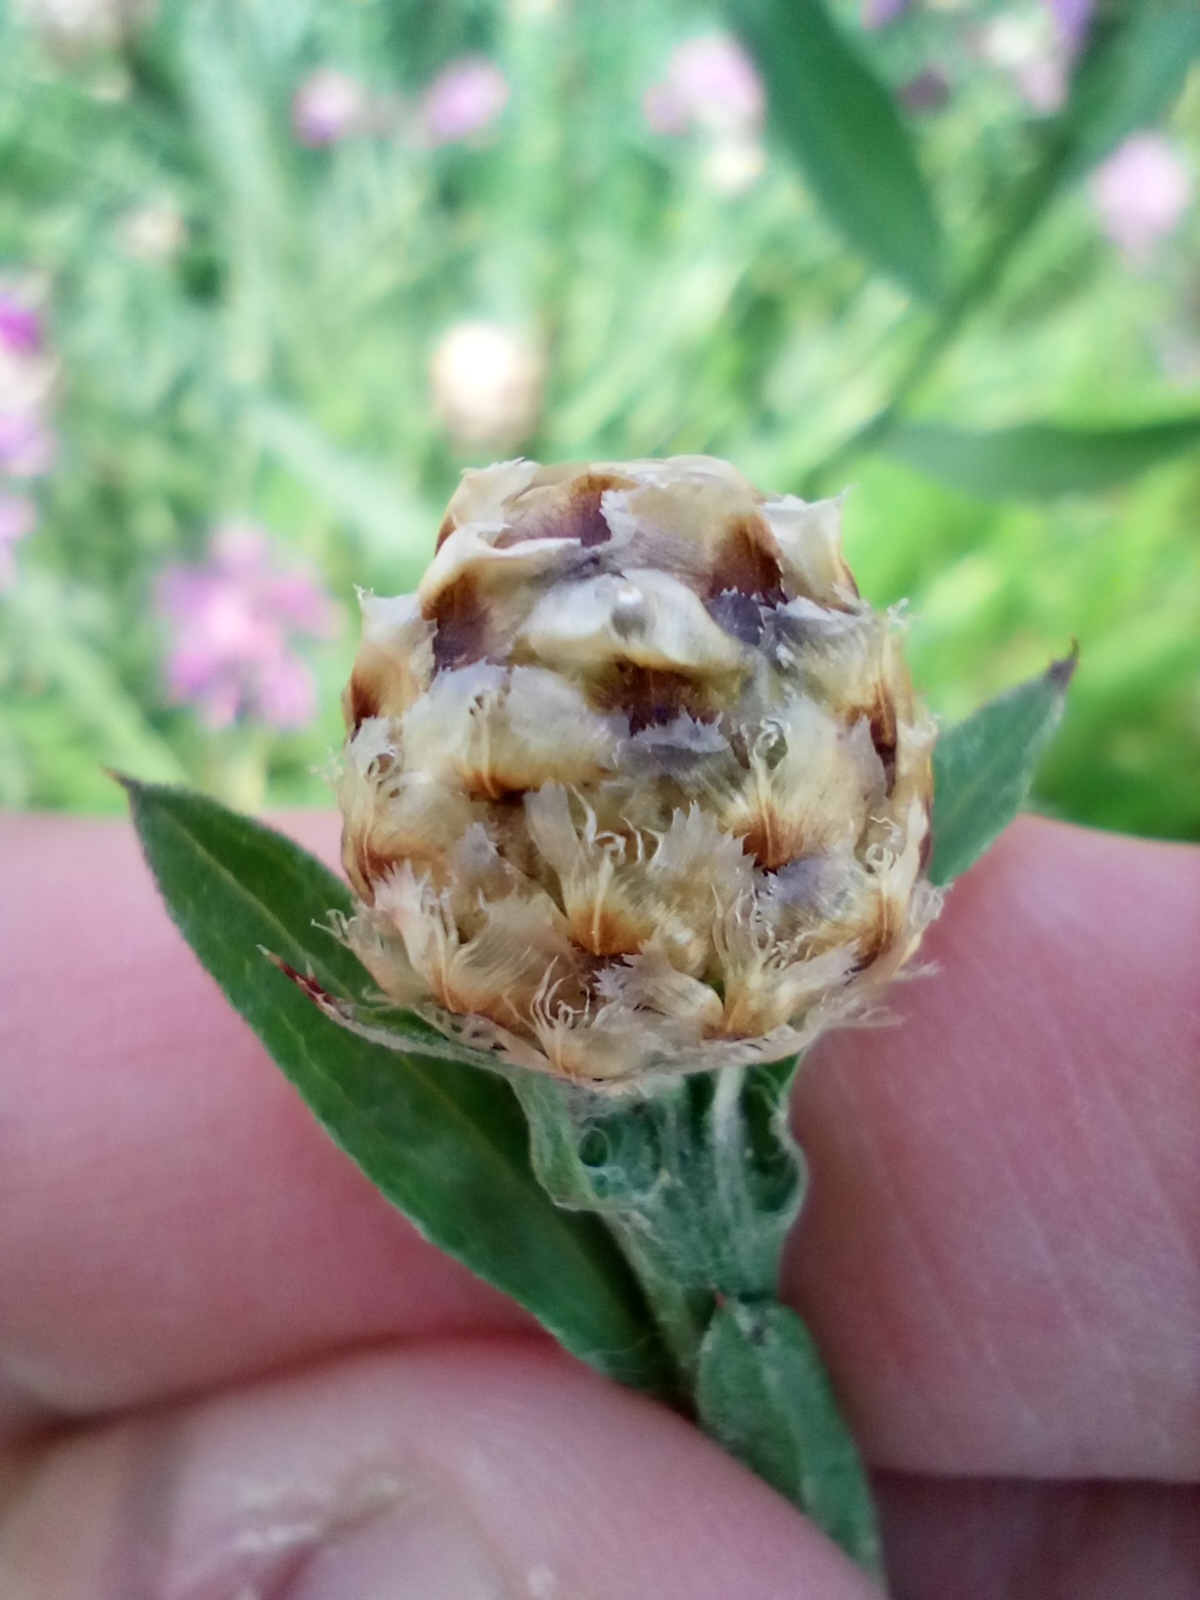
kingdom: Plantae
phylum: Tracheophyta
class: Magnoliopsida
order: Asterales
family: Asteraceae
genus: Centaurea
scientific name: Centaurea jacea
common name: Brown knapweed
